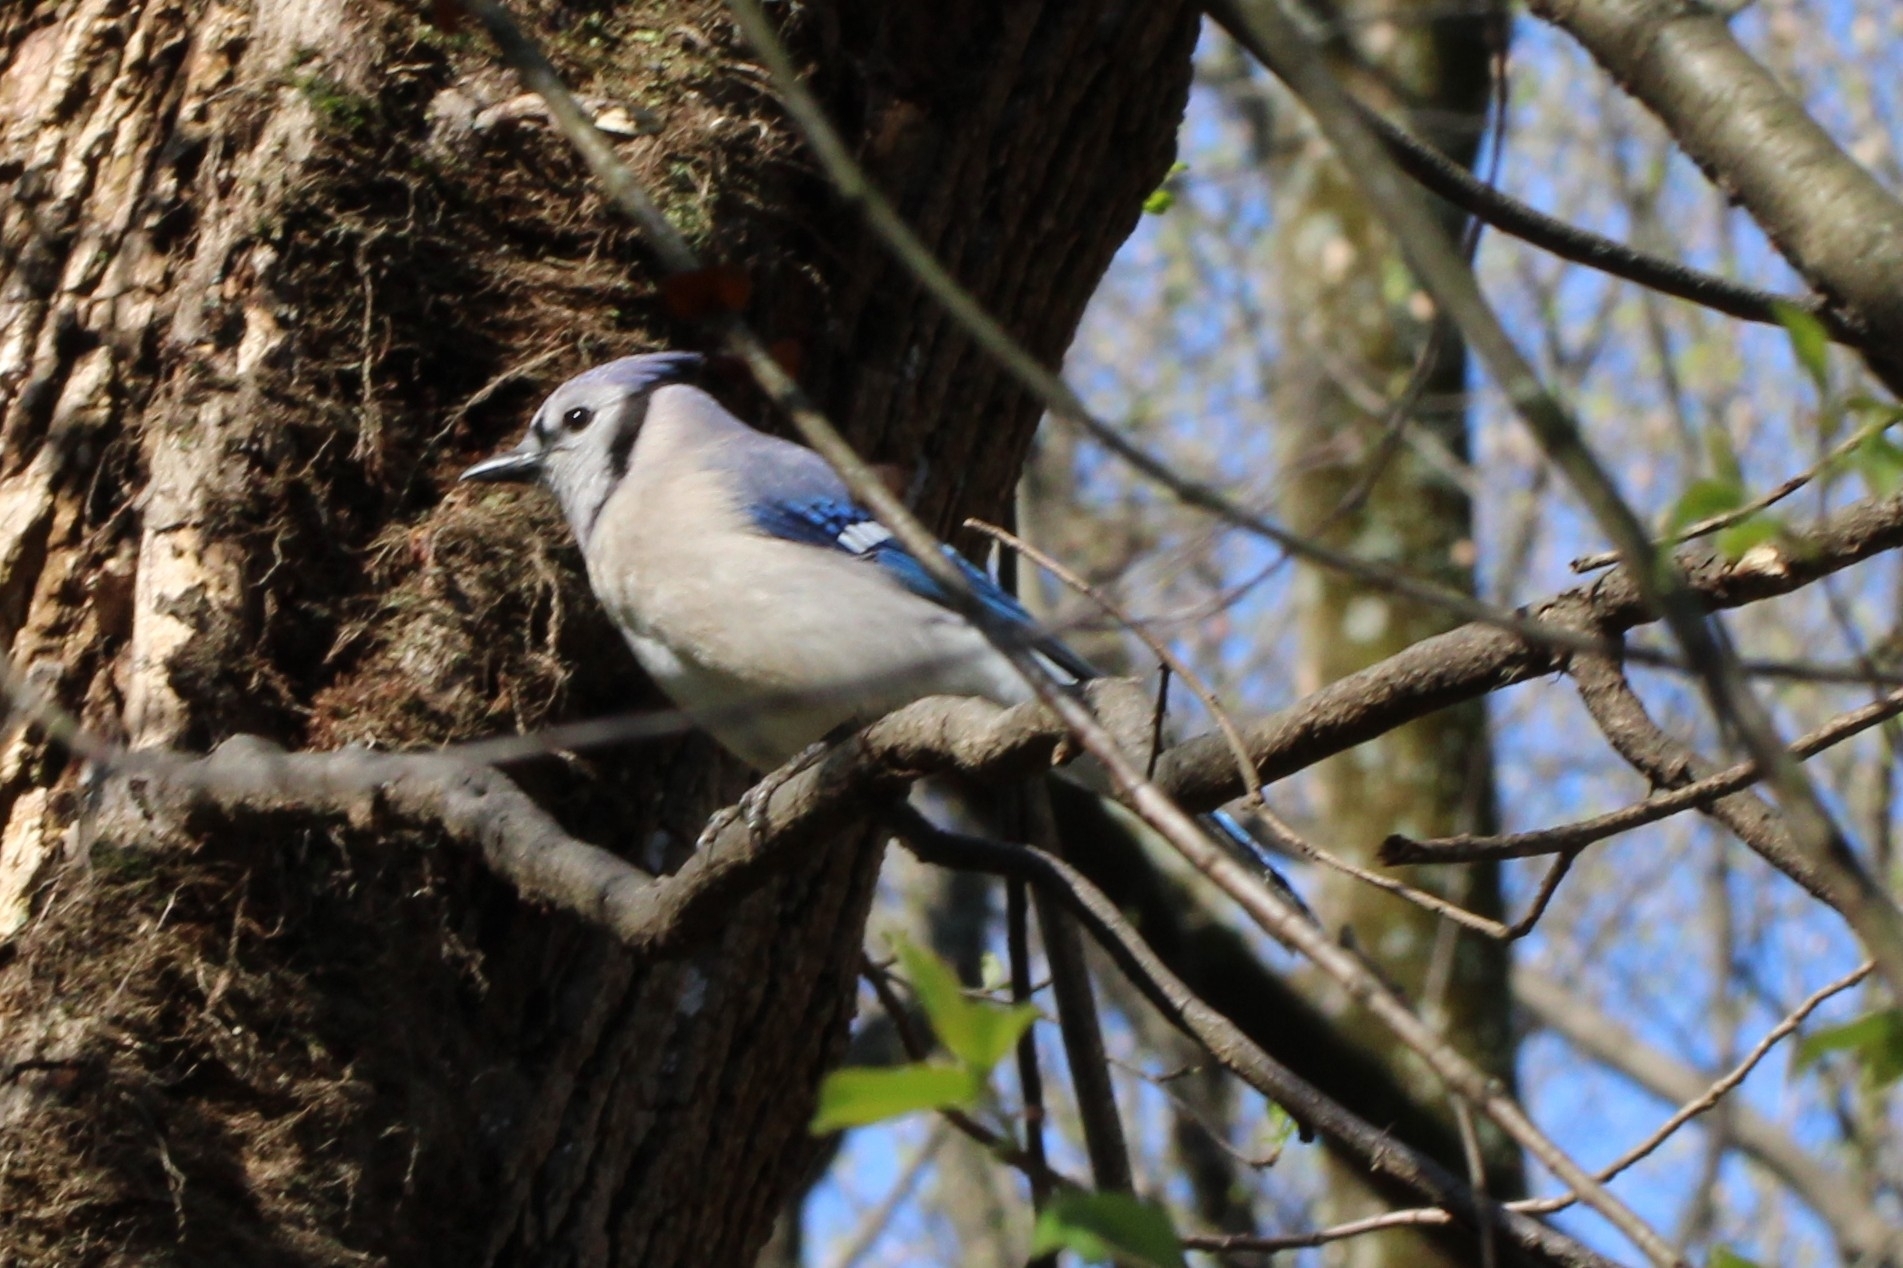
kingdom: Animalia
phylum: Chordata
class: Aves
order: Passeriformes
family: Corvidae
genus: Cyanocitta
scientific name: Cyanocitta cristata
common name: Blue jay
